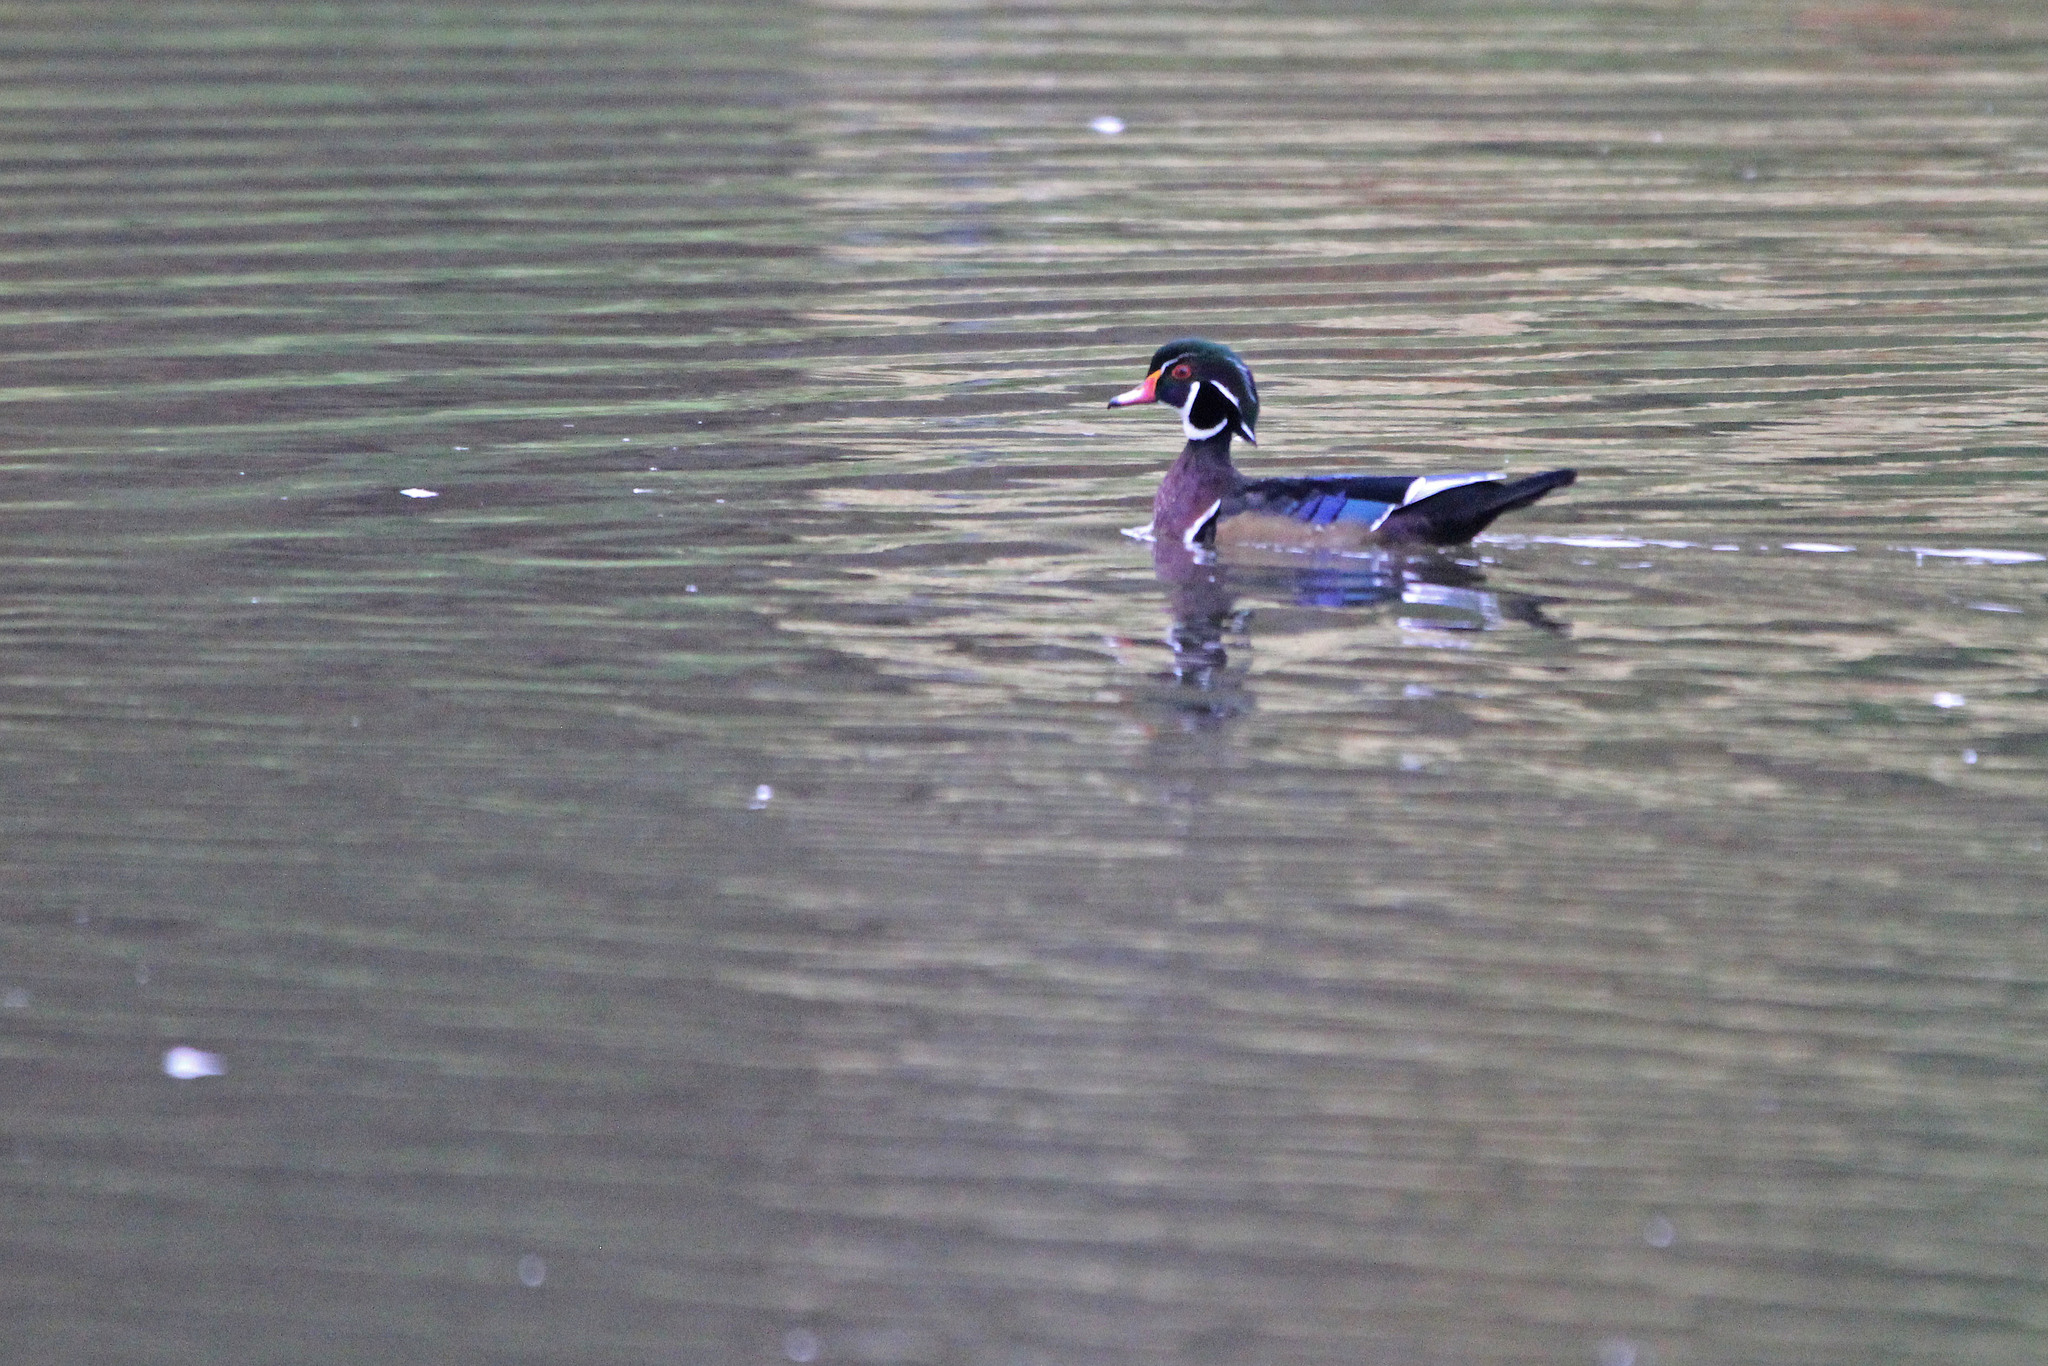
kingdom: Animalia
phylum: Chordata
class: Aves
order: Anseriformes
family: Anatidae
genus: Aix
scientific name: Aix sponsa
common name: Wood duck
